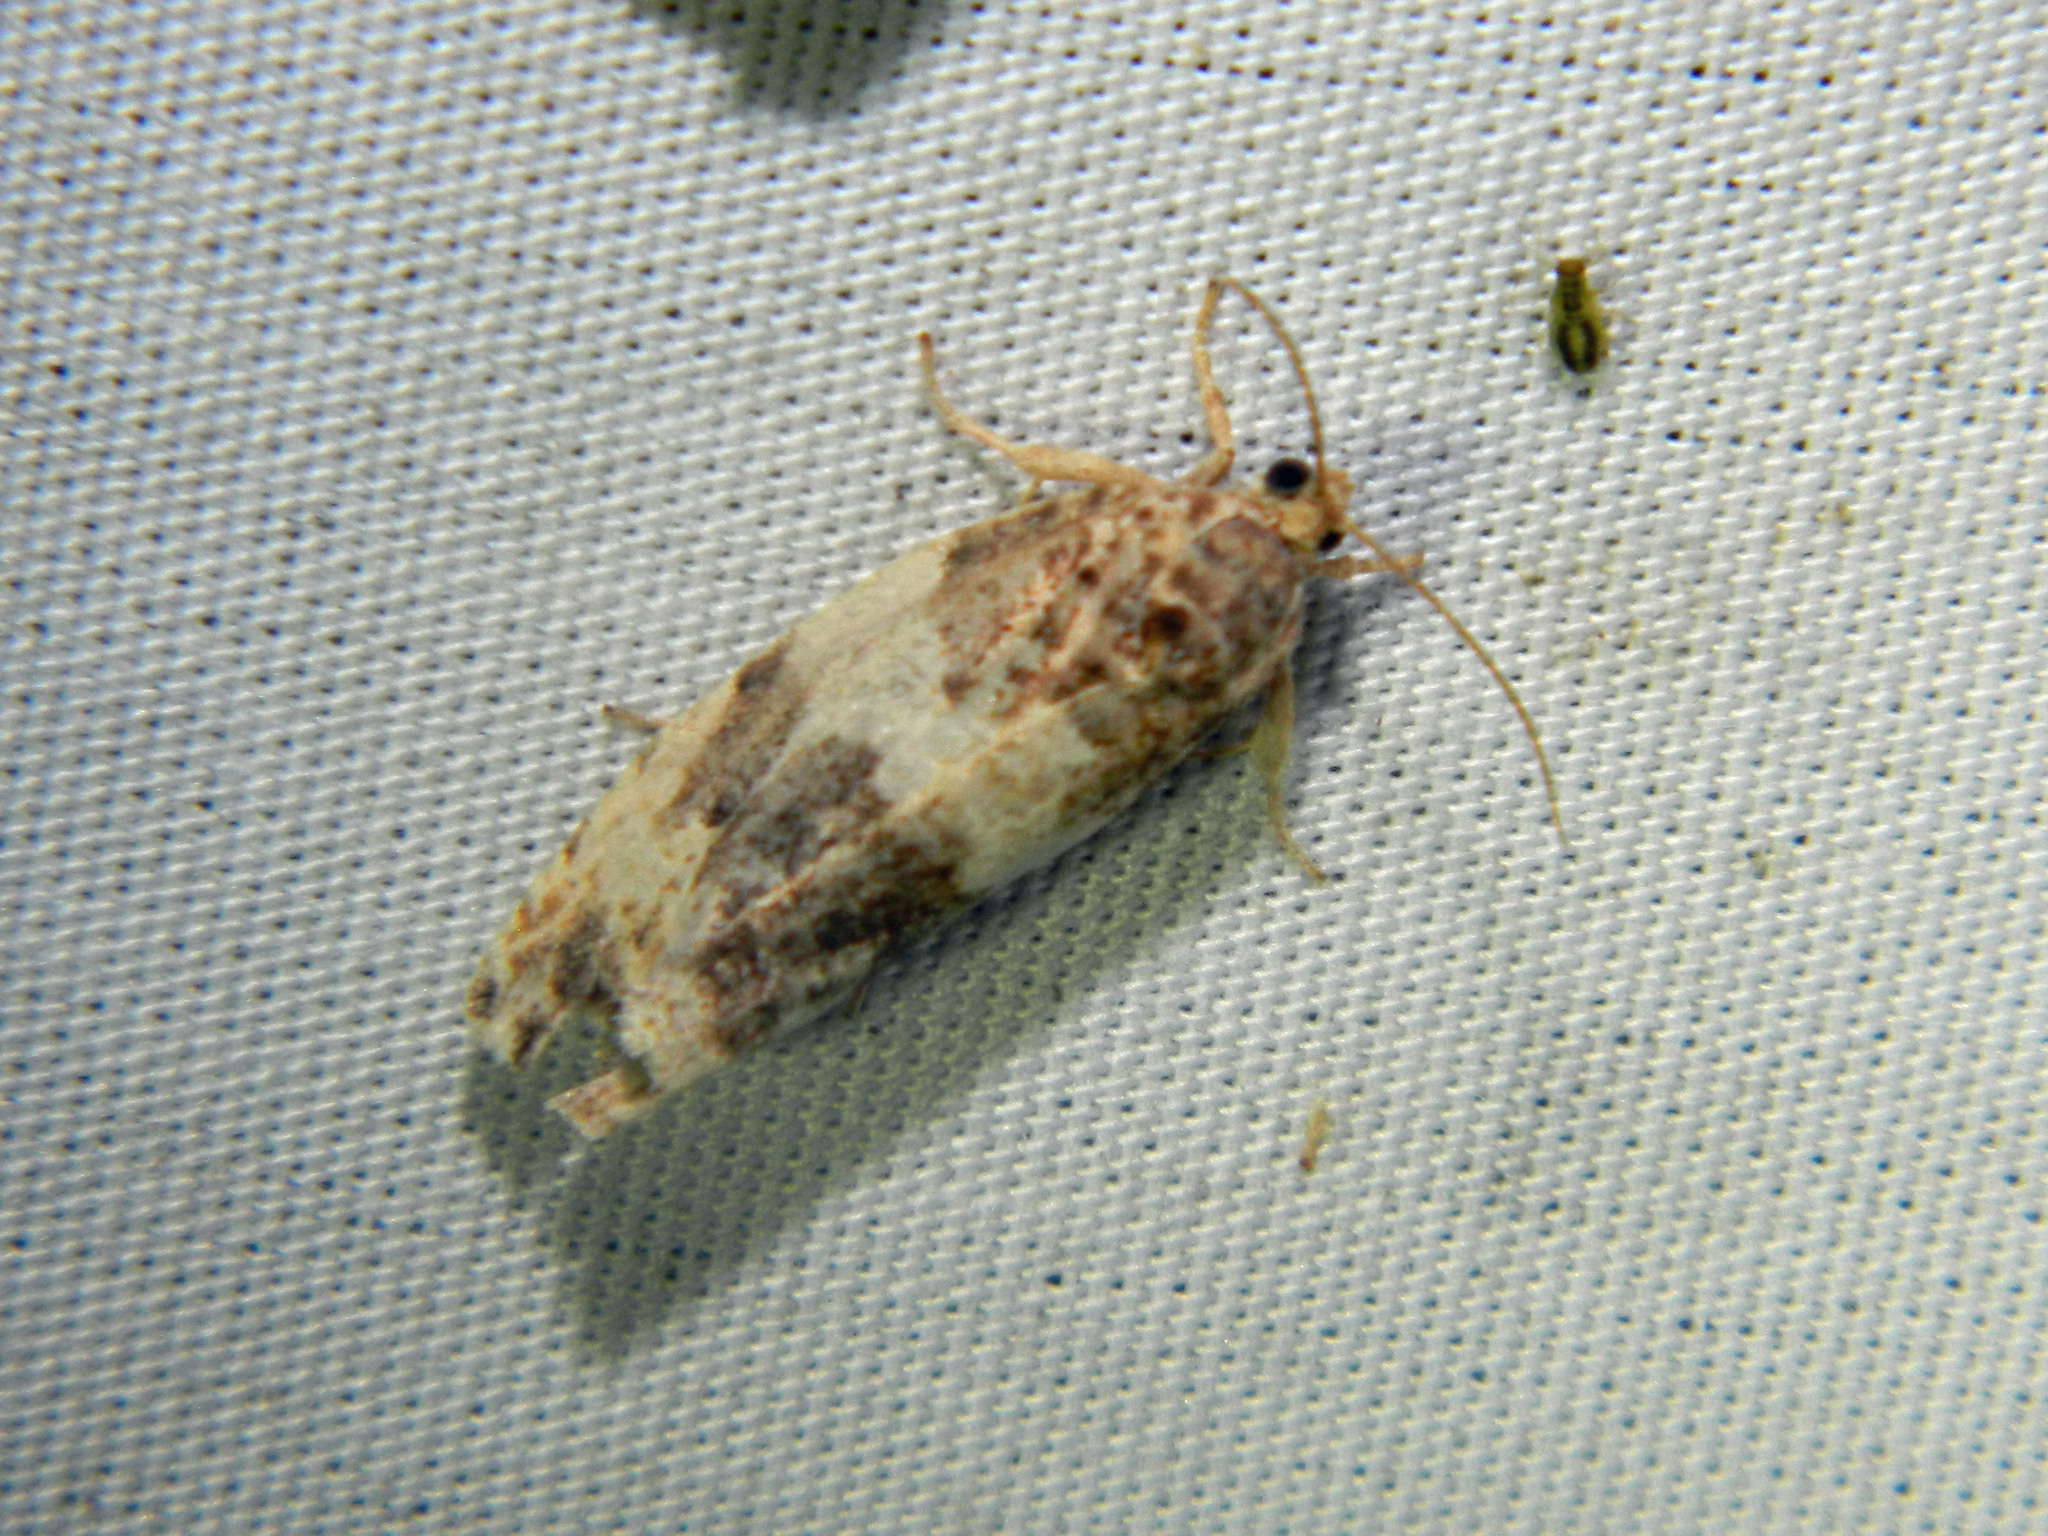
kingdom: Animalia
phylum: Arthropoda
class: Insecta
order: Lepidoptera
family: Tortricidae
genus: Pseudosciaphila
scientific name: Pseudosciaphila duplex
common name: Poplar leafroller moth
